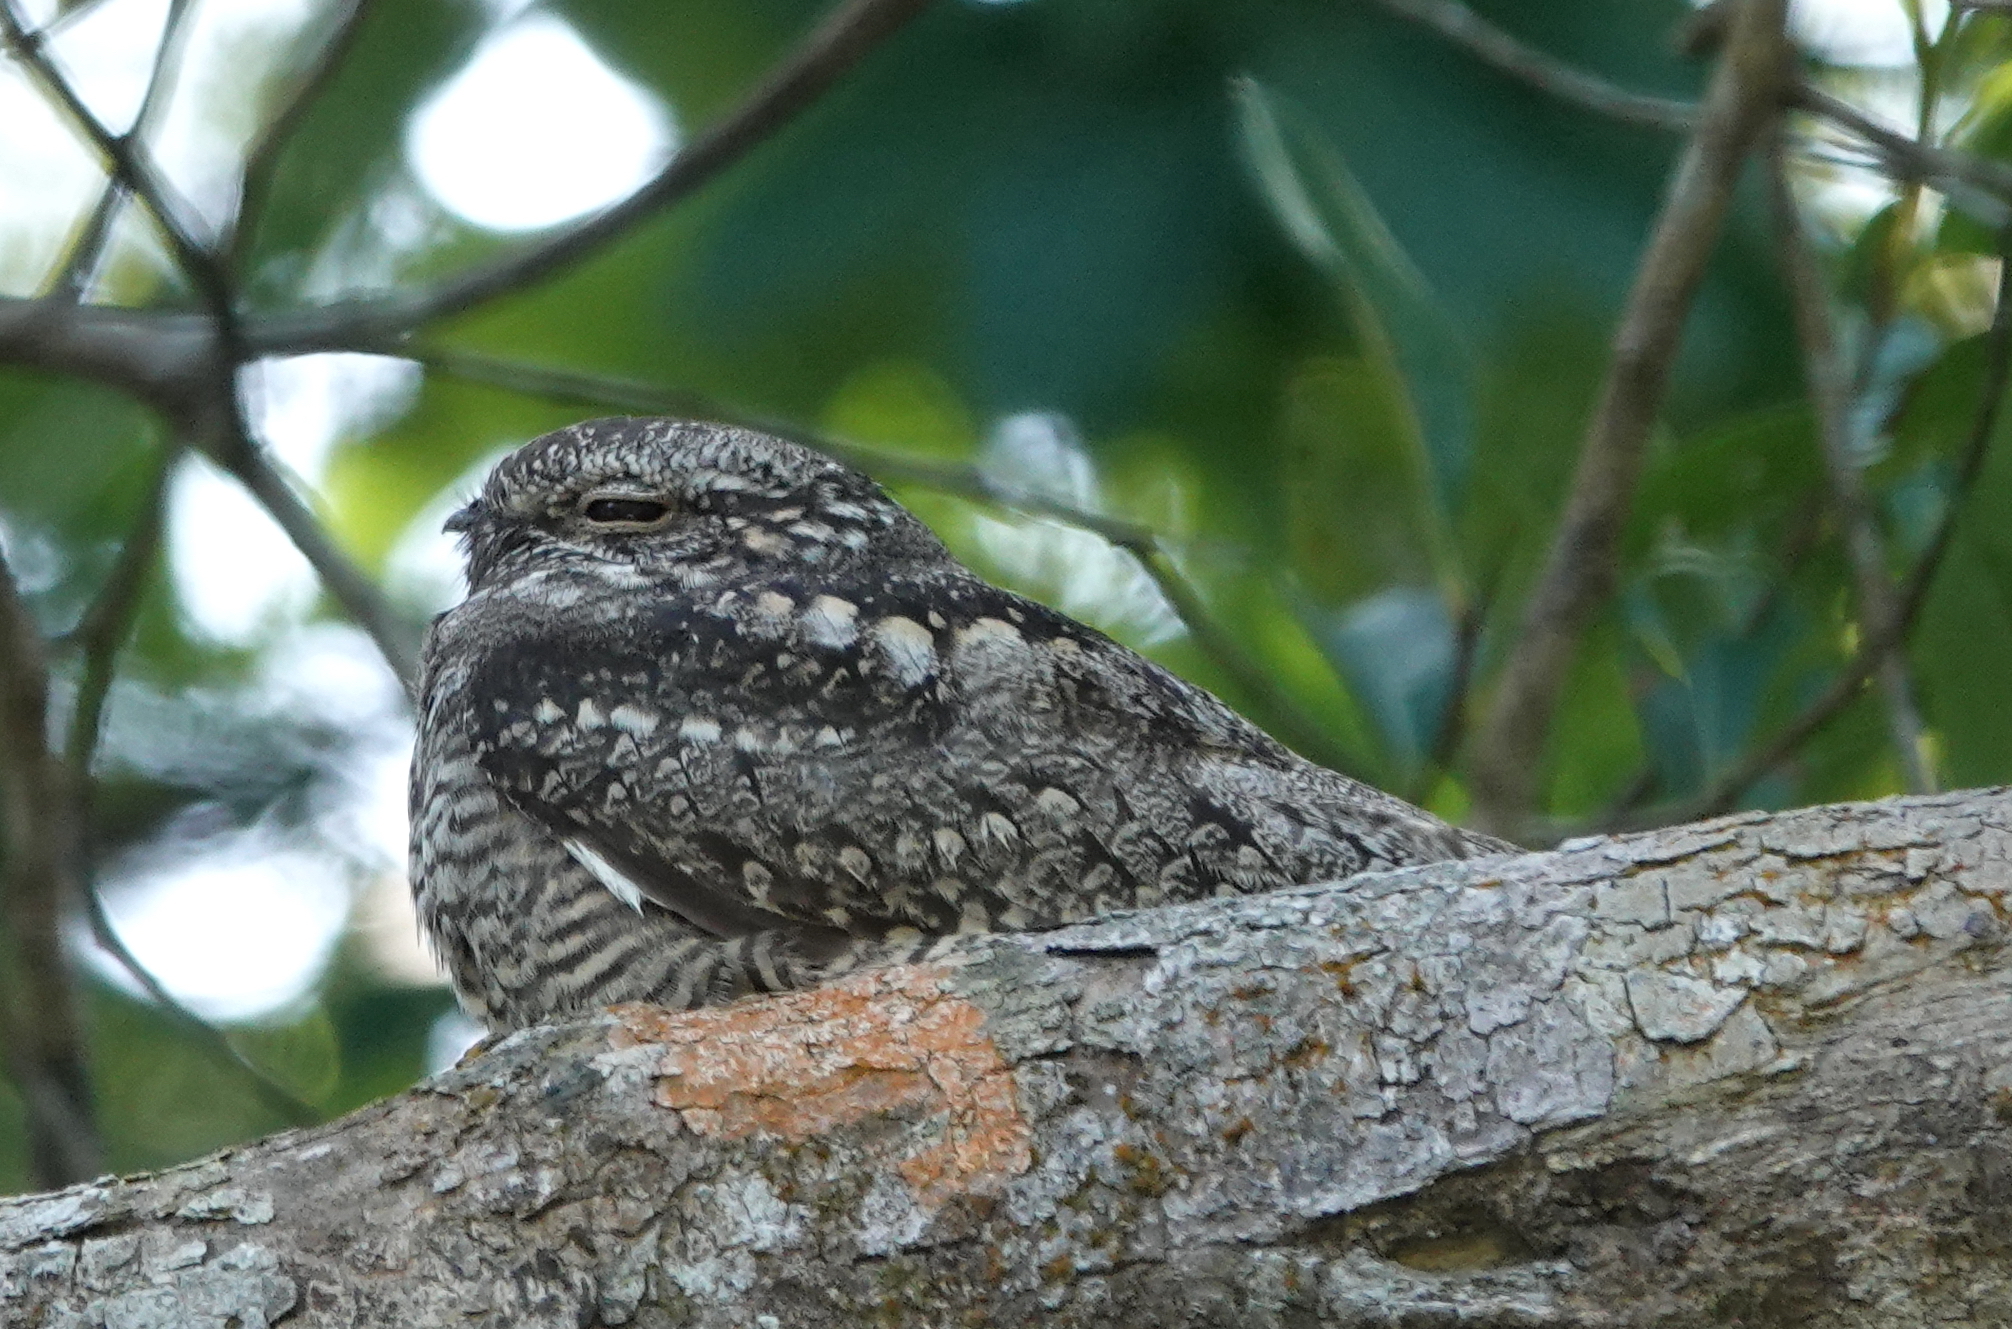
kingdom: Animalia
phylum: Chordata
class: Aves
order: Caprimulgiformes
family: Caprimulgidae
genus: Chordeiles
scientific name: Chordeiles acutipennis
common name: Lesser nighthawk
